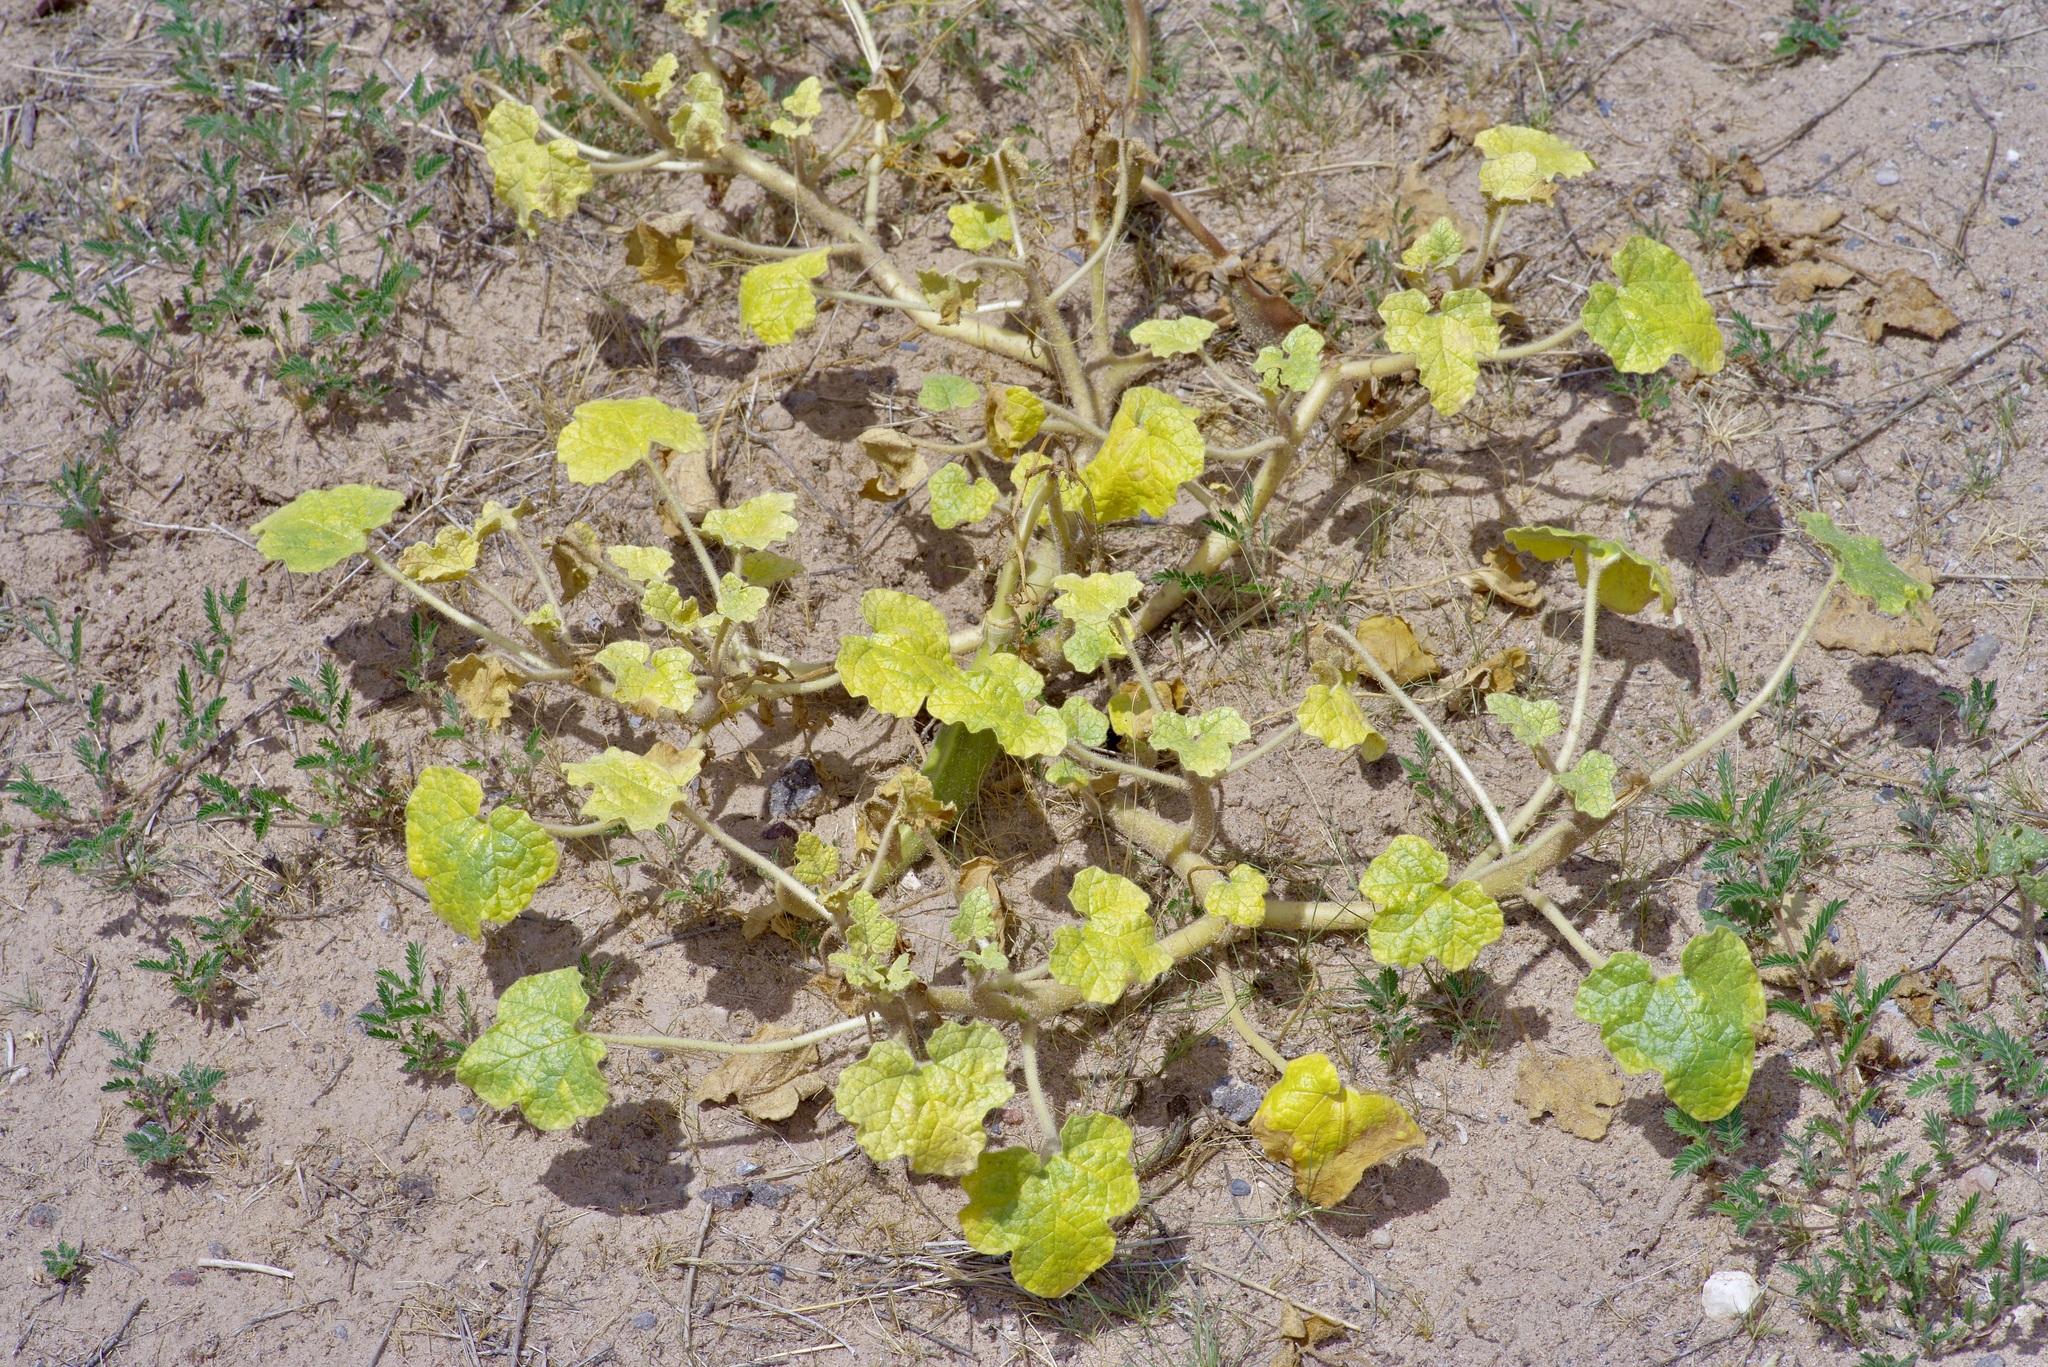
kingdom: Plantae
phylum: Tracheophyta
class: Magnoliopsida
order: Lamiales
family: Martyniaceae
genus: Proboscidea
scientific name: Proboscidea althaeifolia
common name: Desert unicorn-plant
